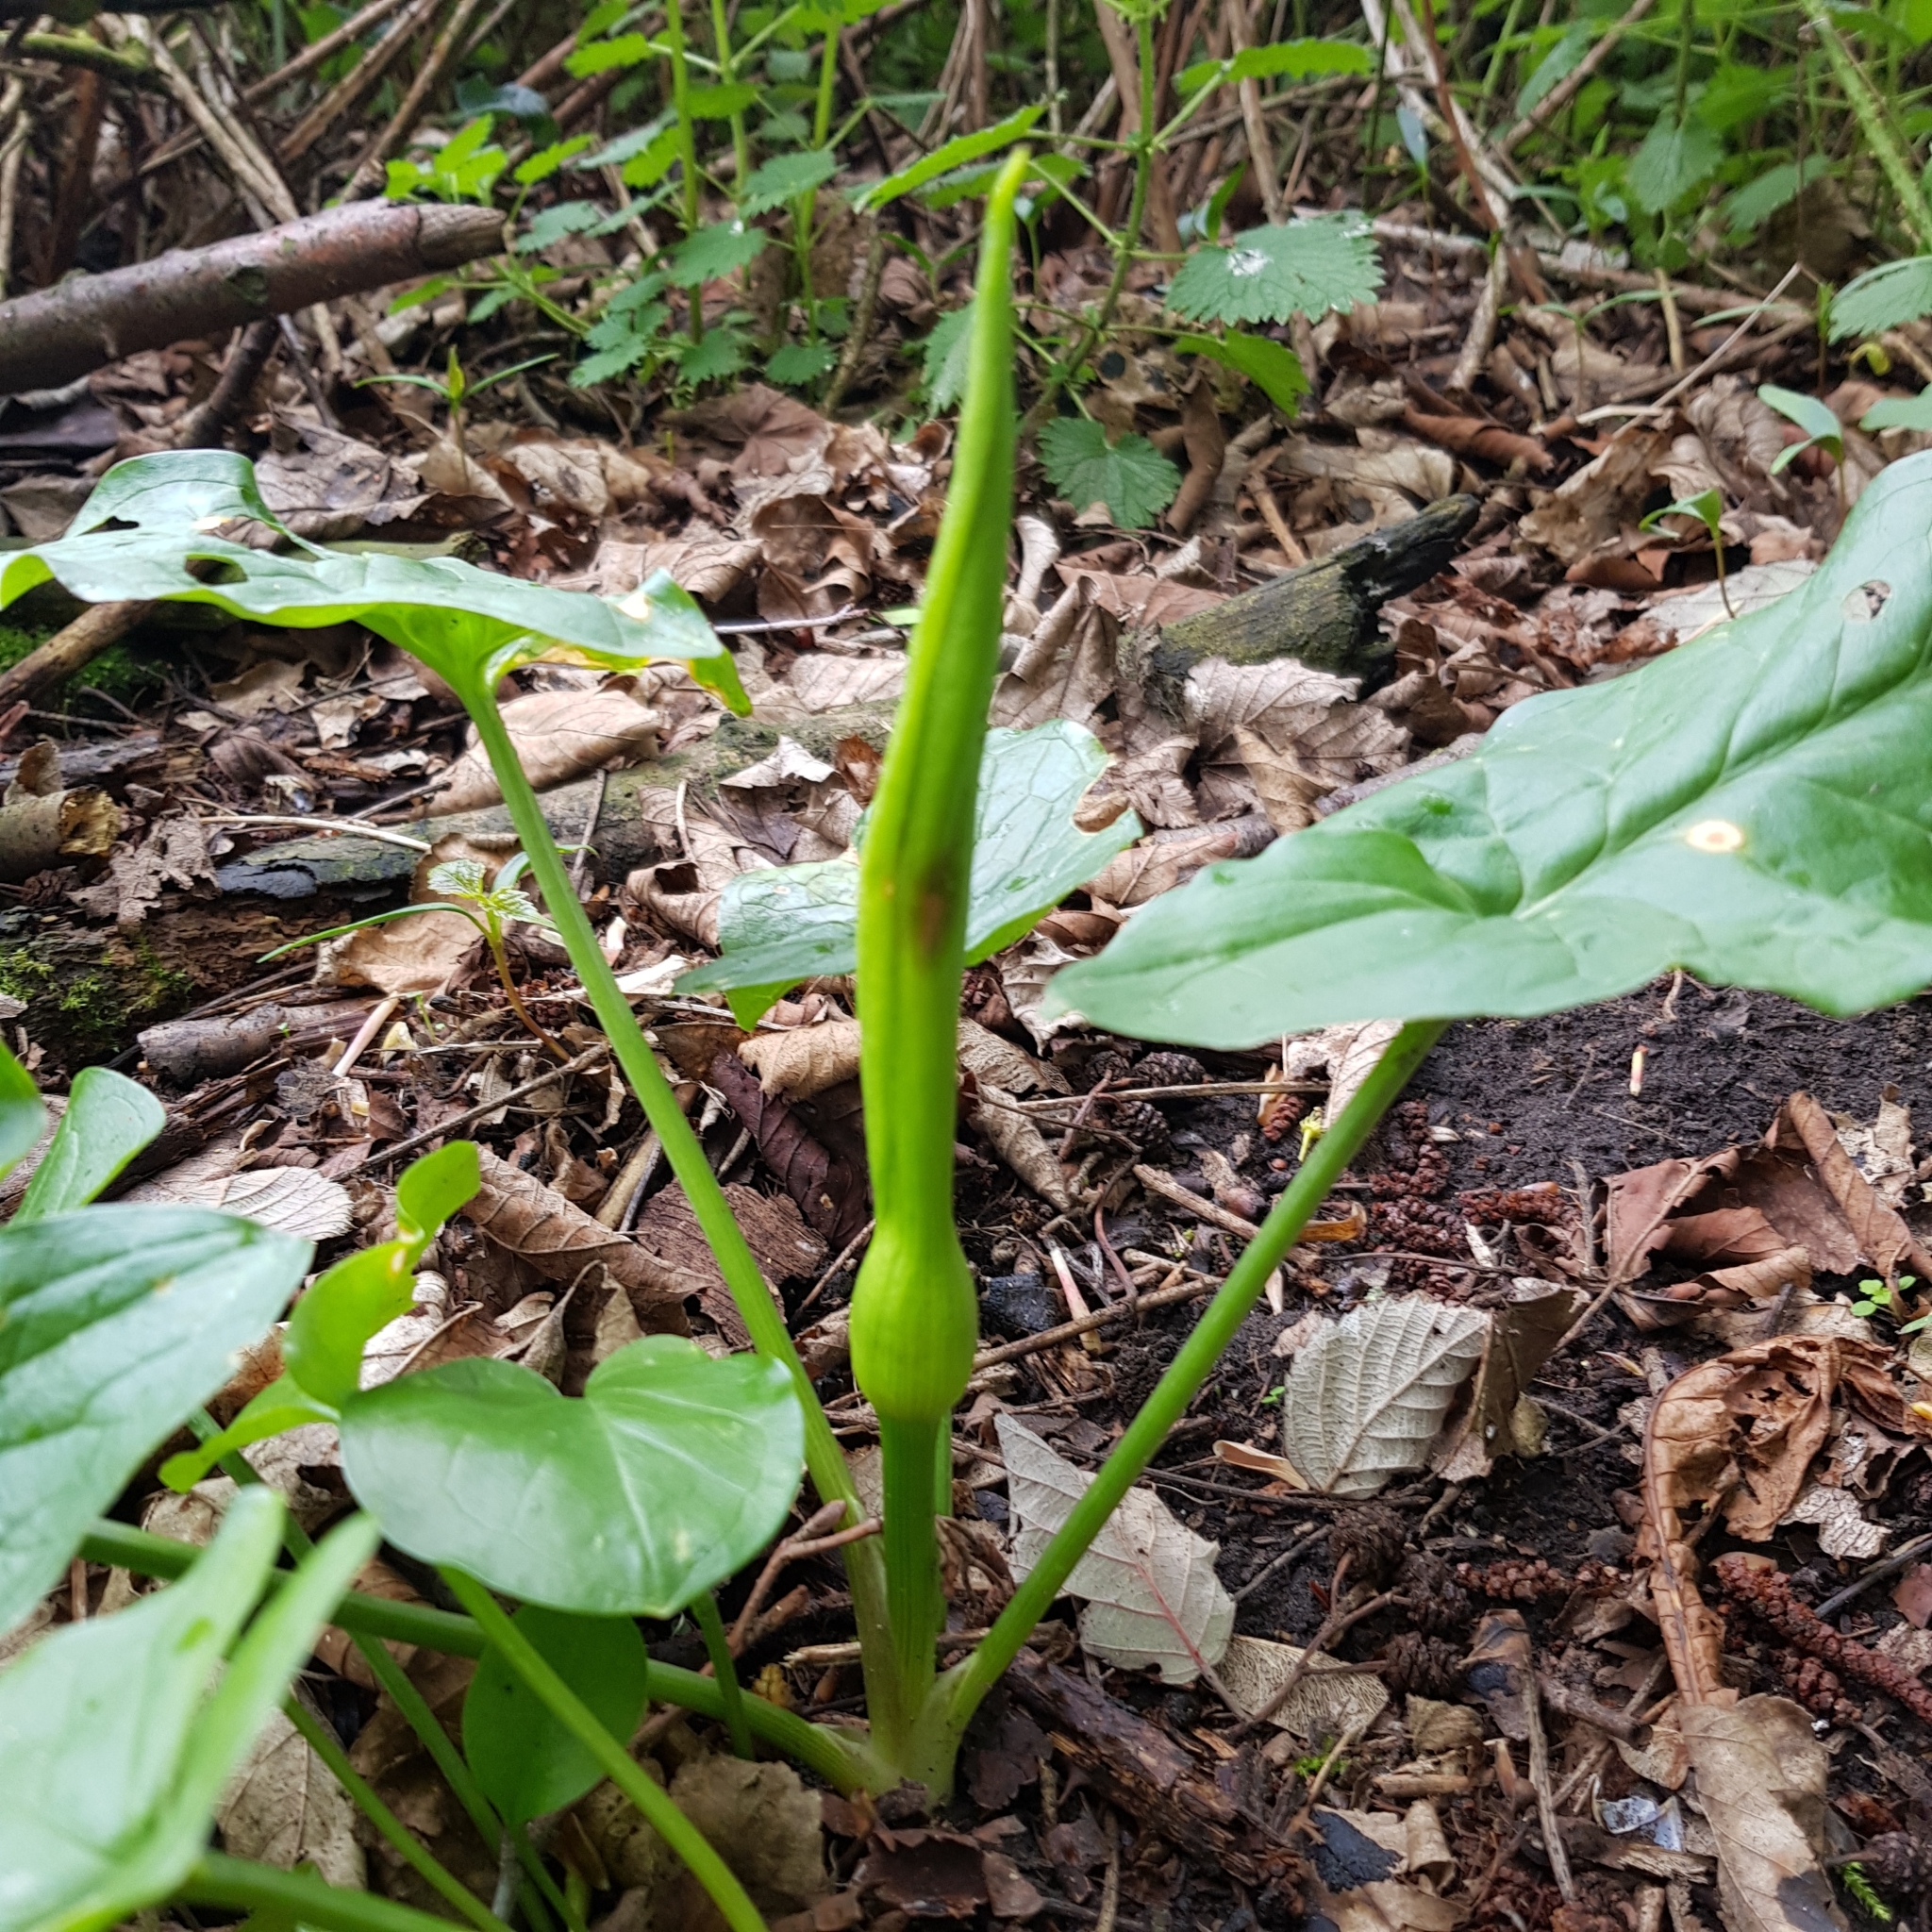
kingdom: Plantae
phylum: Tracheophyta
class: Liliopsida
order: Alismatales
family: Araceae
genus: Arum
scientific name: Arum maculatum
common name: Lords-and-ladies
